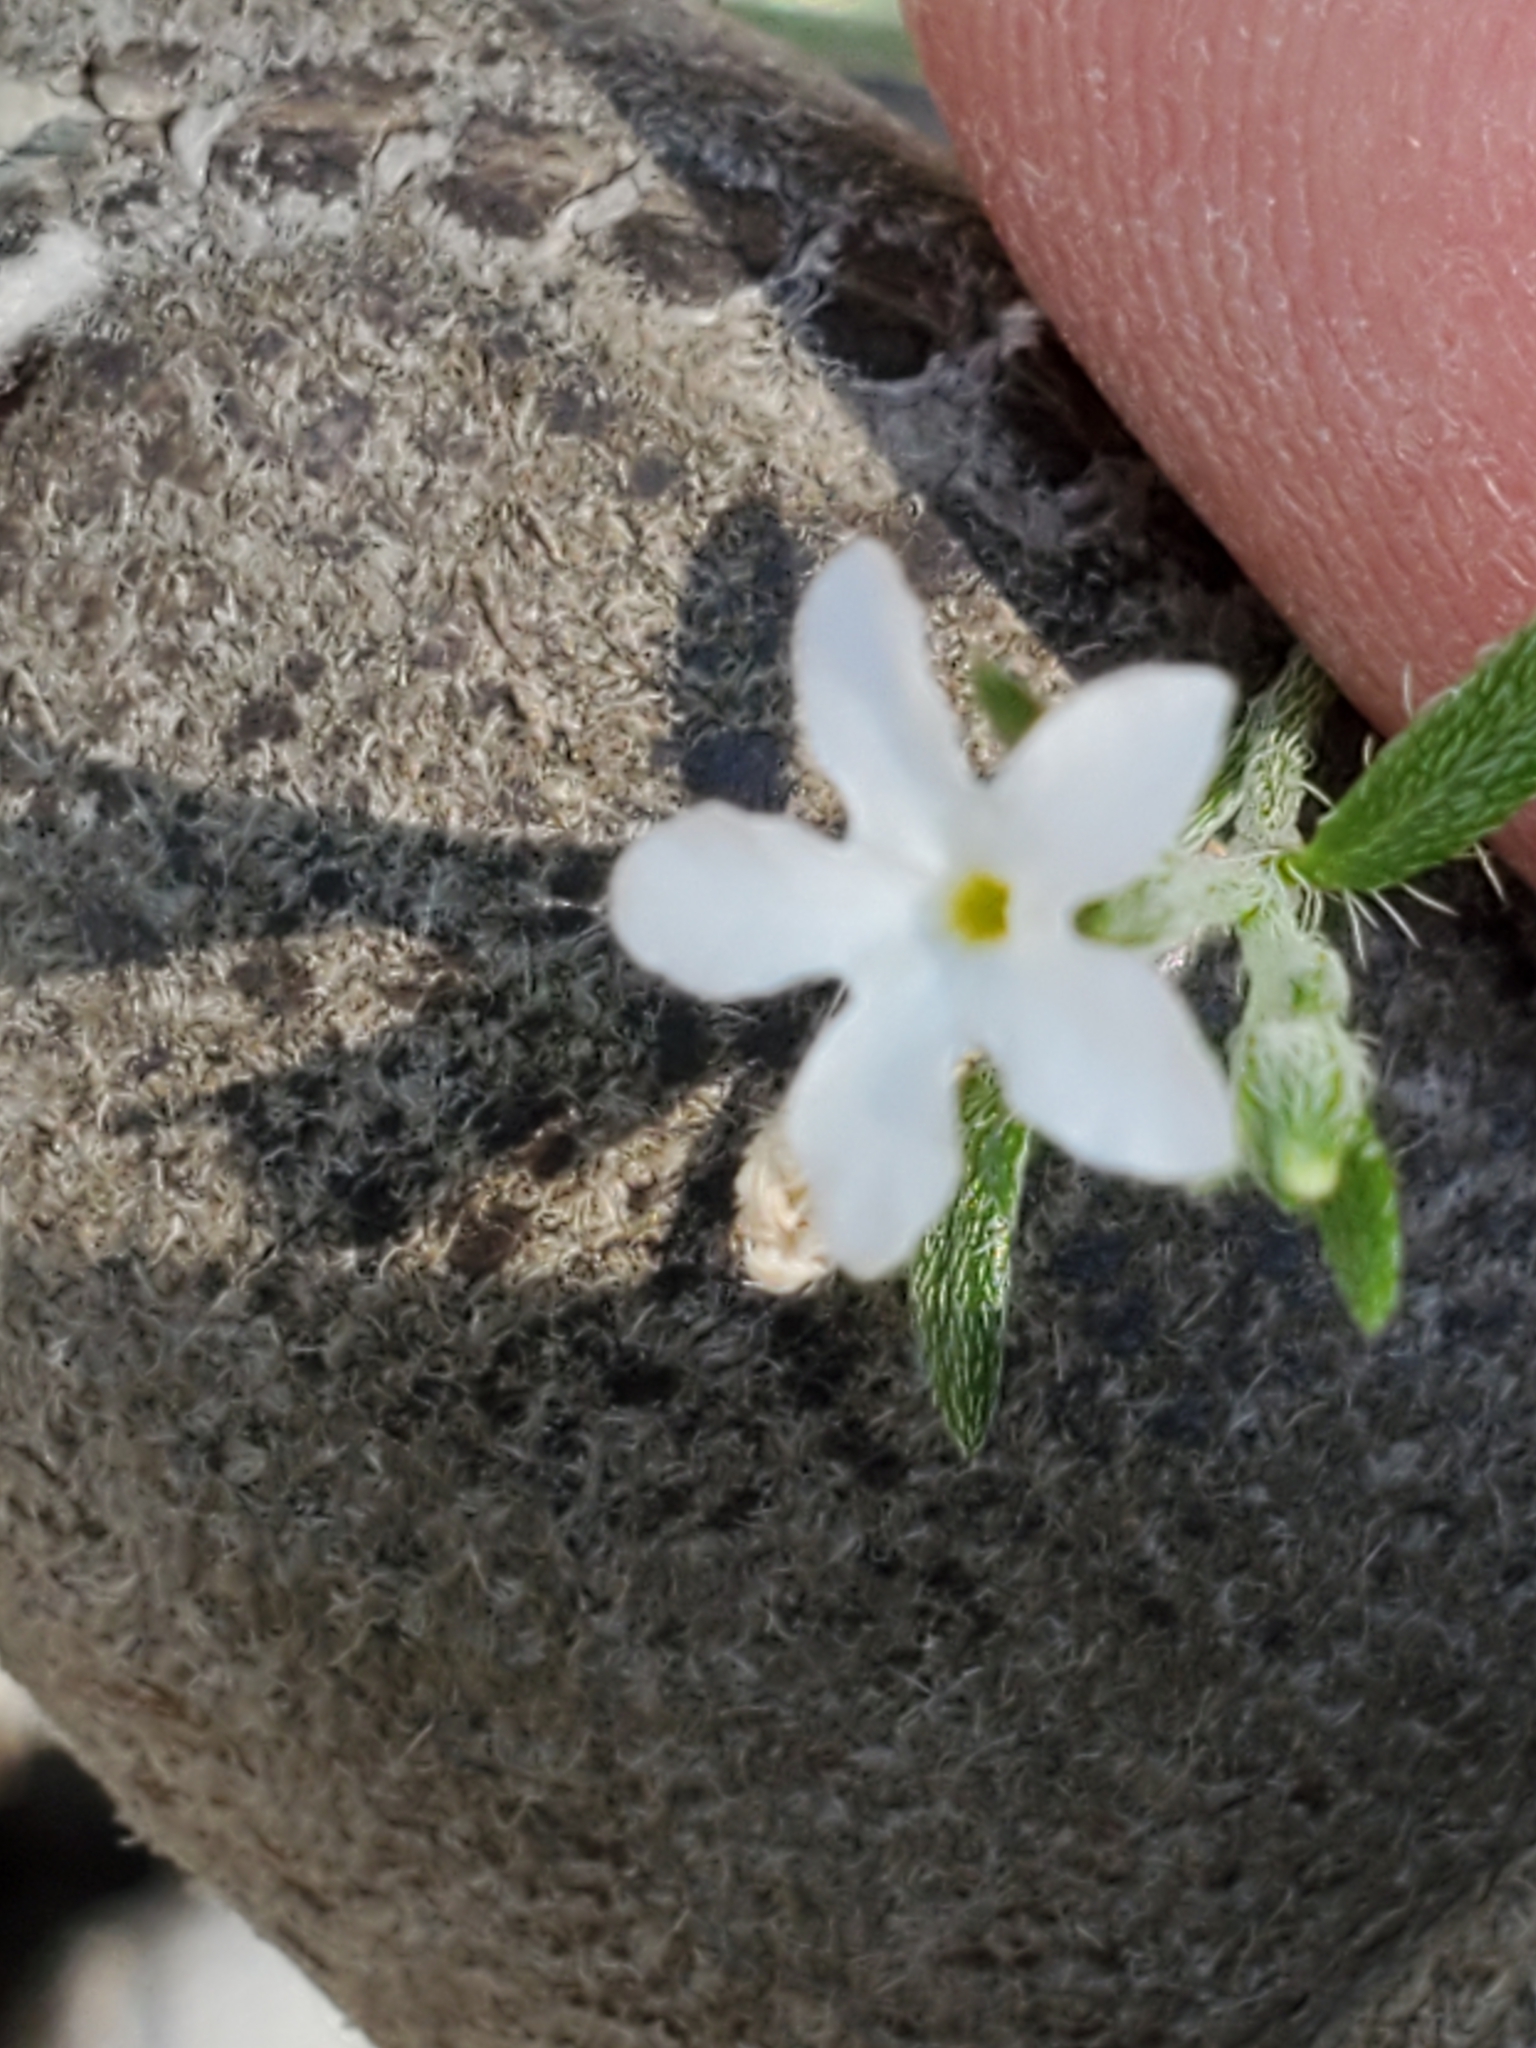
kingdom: Plantae
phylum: Tracheophyta
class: Magnoliopsida
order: Boraginales
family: Heliotropiaceae
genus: Euploca
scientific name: Euploca tenella
